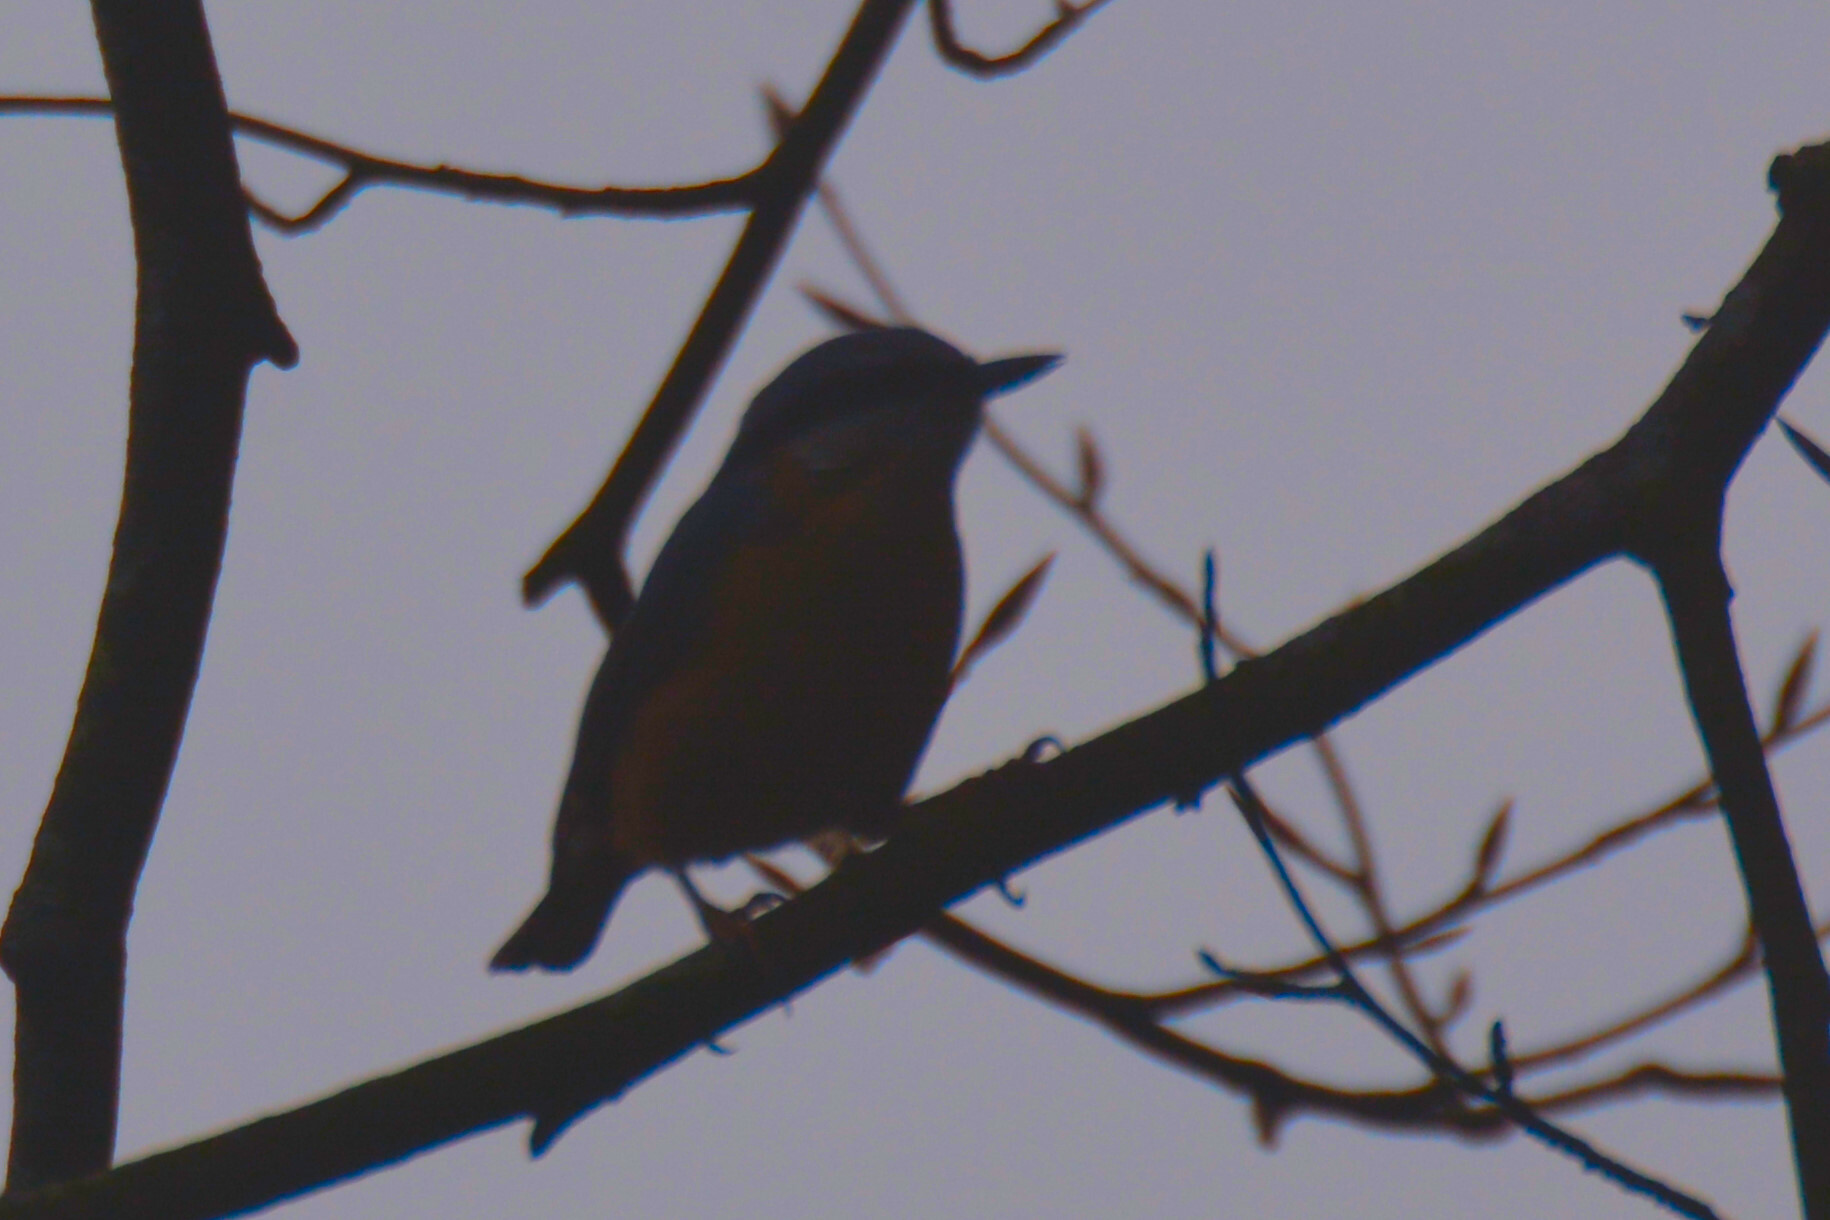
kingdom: Animalia
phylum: Chordata
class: Aves
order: Passeriformes
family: Sittidae
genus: Sitta
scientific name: Sitta europaea
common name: Eurasian nuthatch
